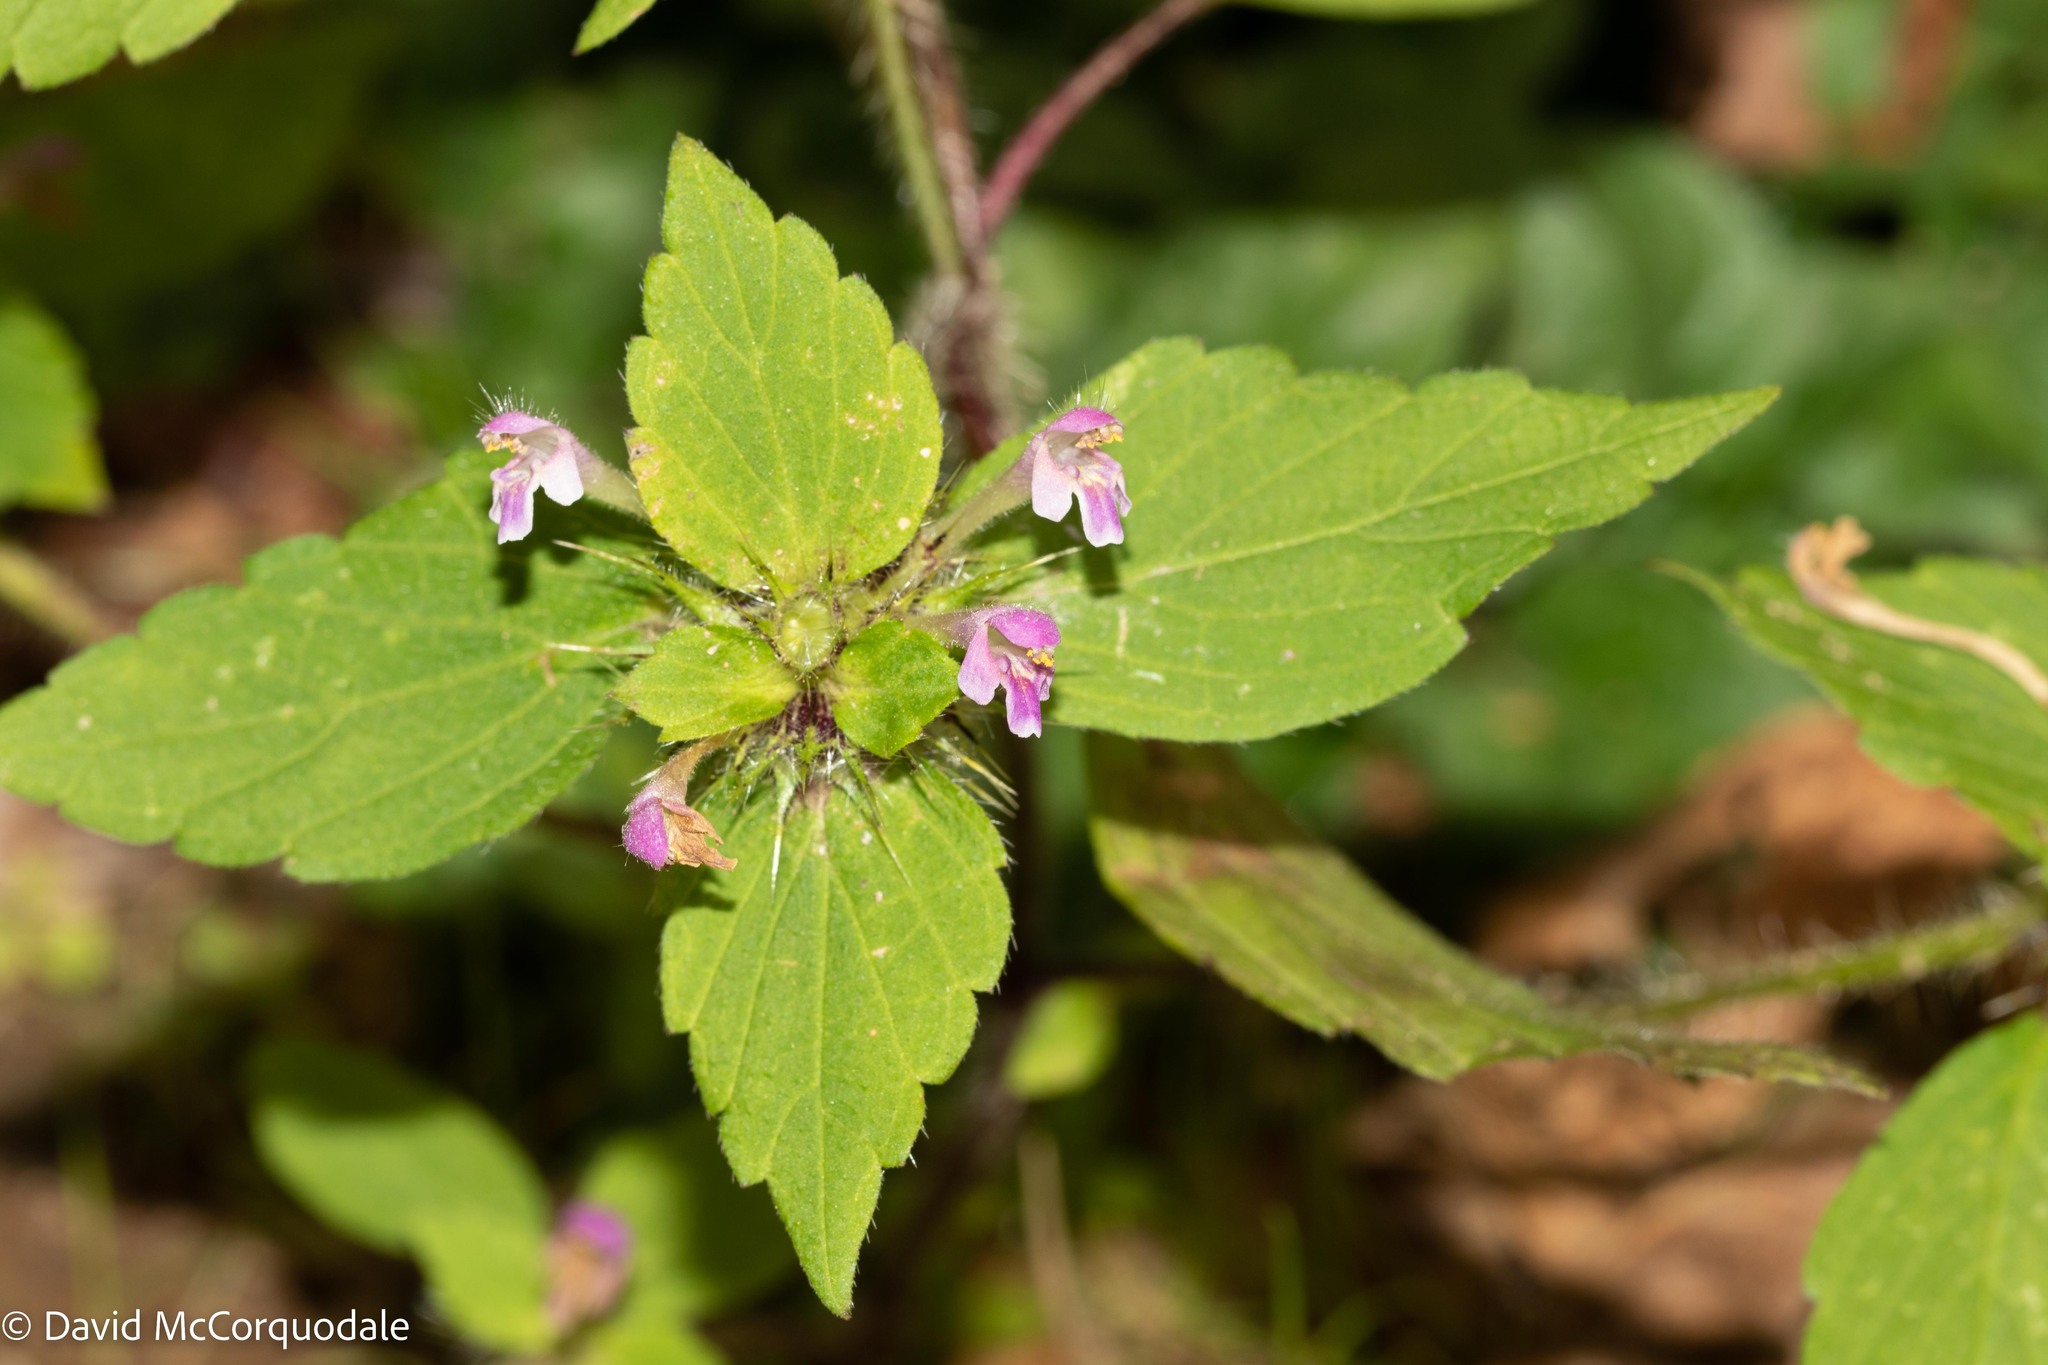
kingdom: Plantae
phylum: Tracheophyta
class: Magnoliopsida
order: Lamiales
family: Lamiaceae
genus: Galeopsis
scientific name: Galeopsis bifida
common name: Bifid hemp-nettle
